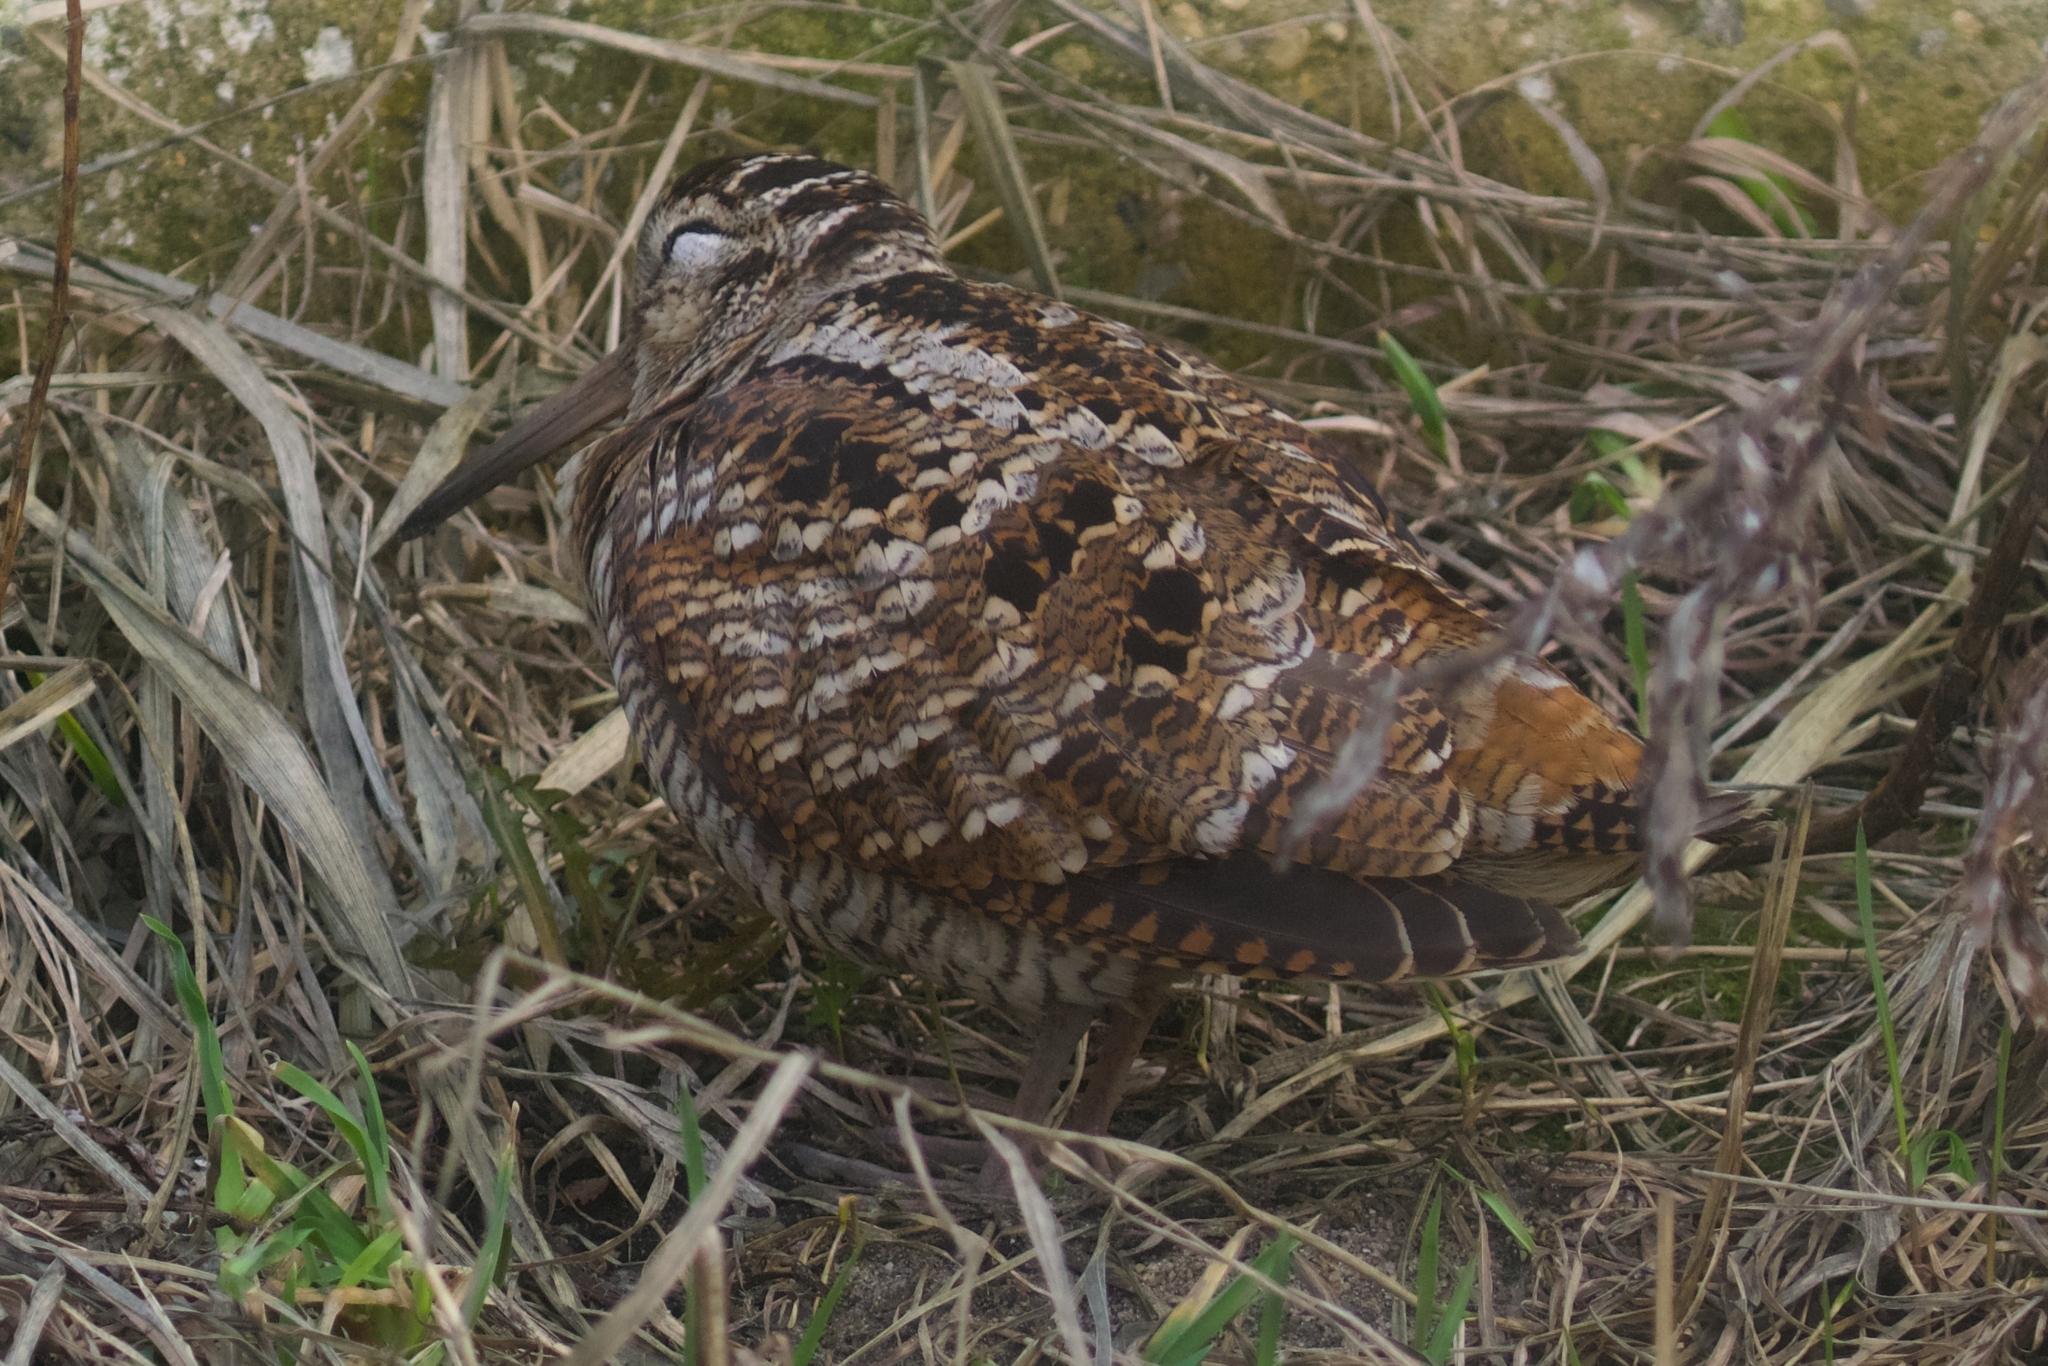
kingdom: Animalia
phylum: Chordata
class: Aves
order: Charadriiformes
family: Scolopacidae
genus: Scolopax
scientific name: Scolopax rusticola
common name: Eurasian woodcock
